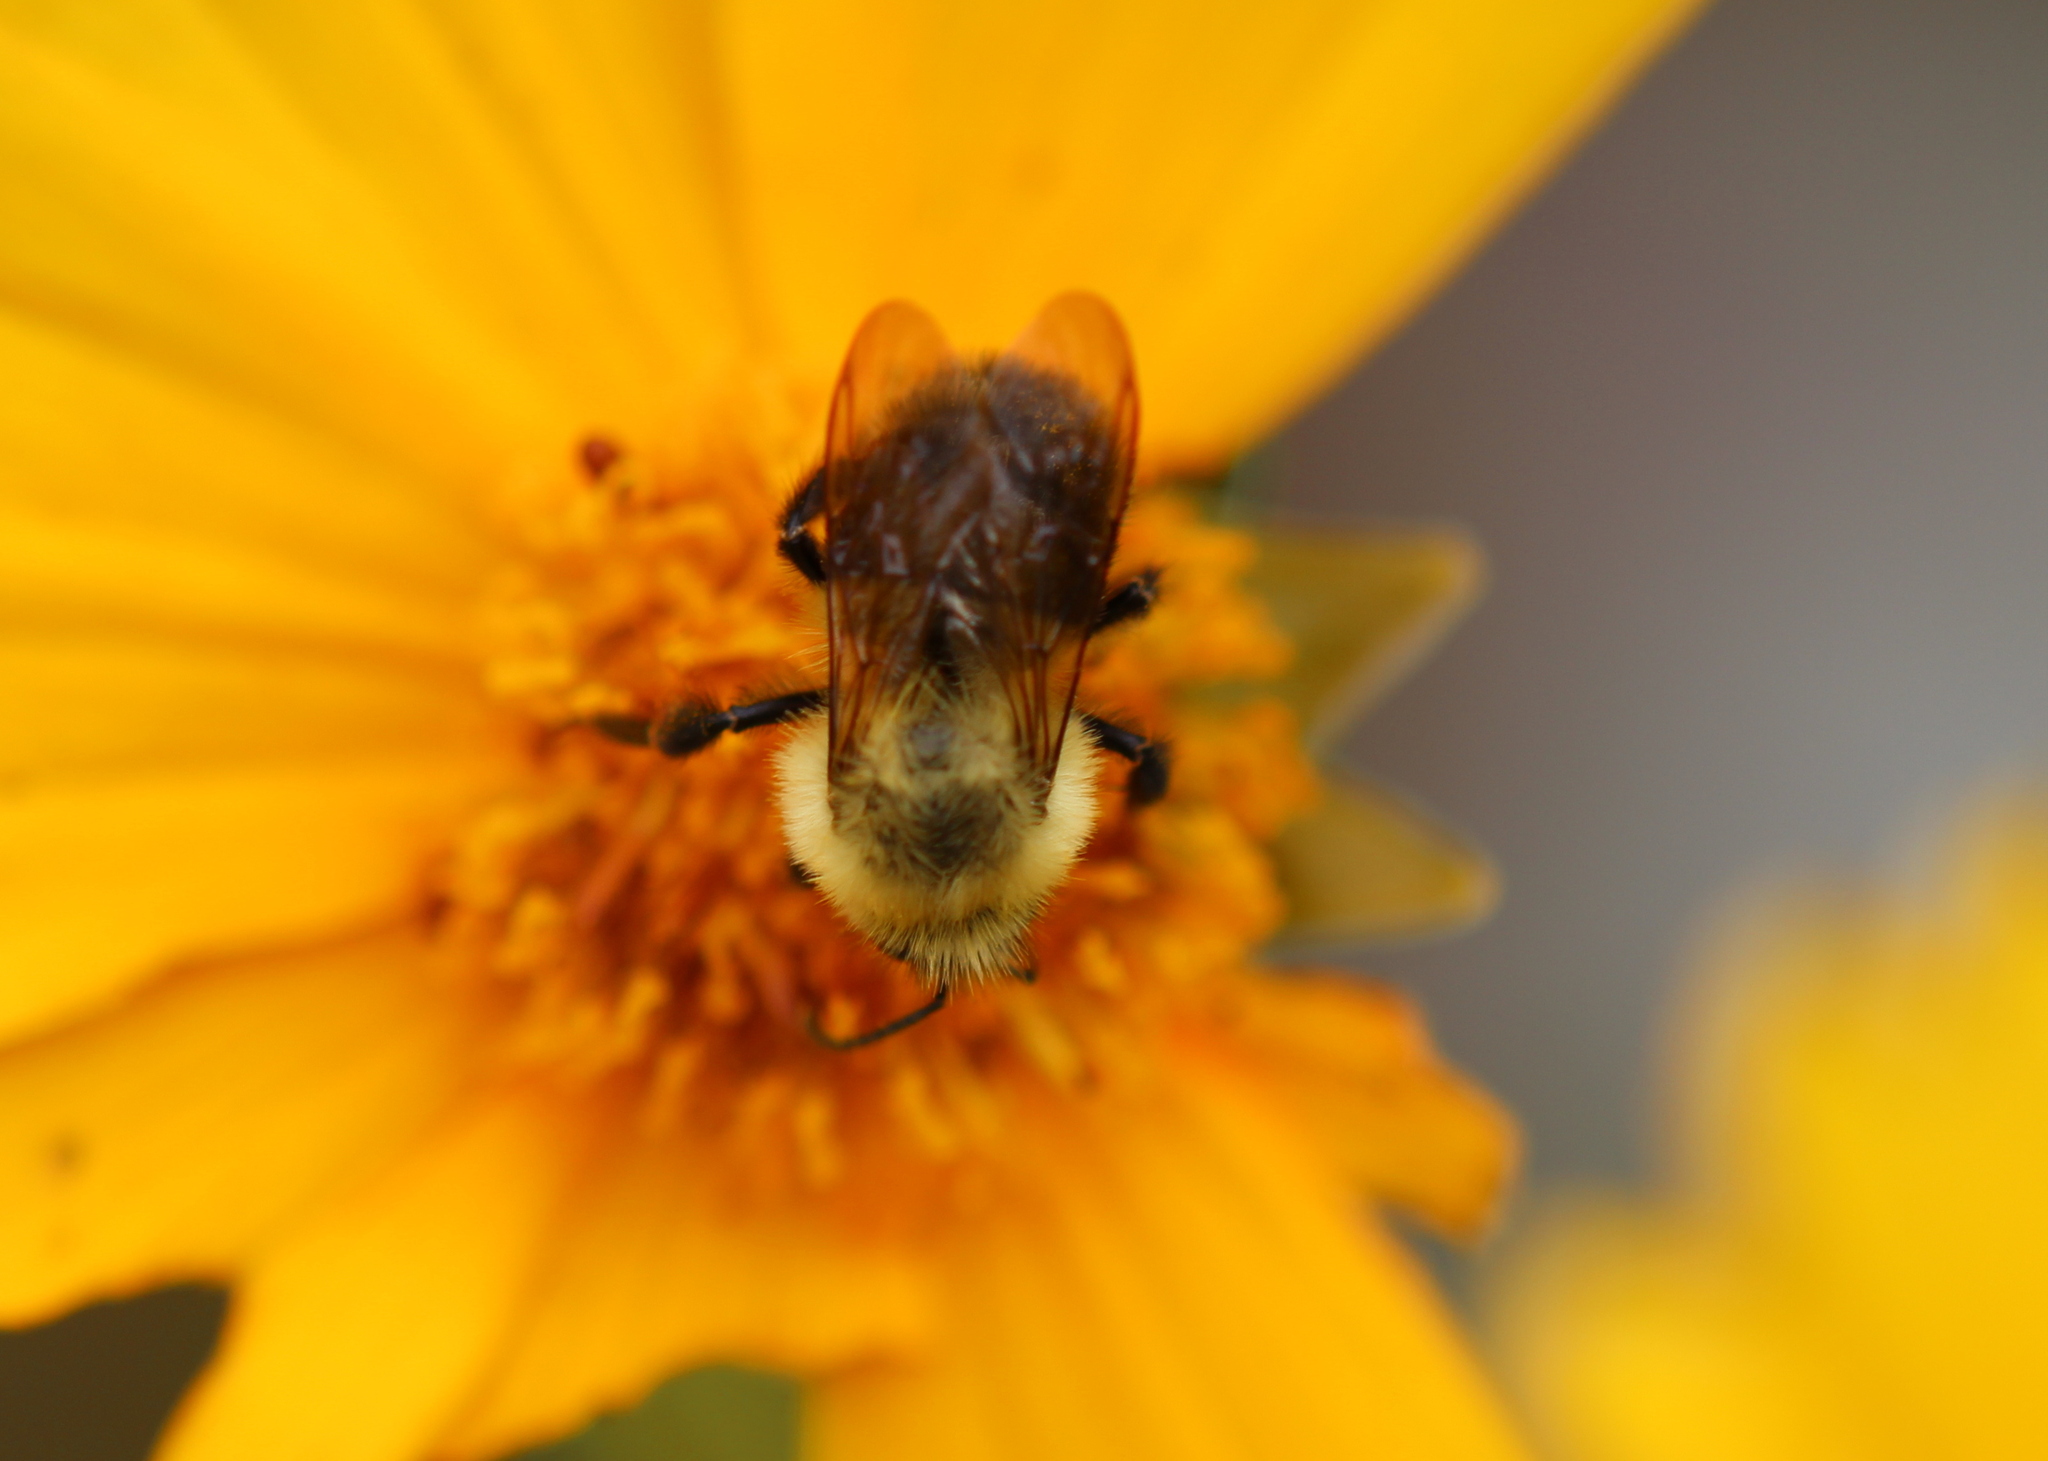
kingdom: Animalia
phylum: Arthropoda
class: Insecta
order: Hymenoptera
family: Apidae
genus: Bombus
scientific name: Bombus bimaculatus
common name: Two-spotted bumble bee
